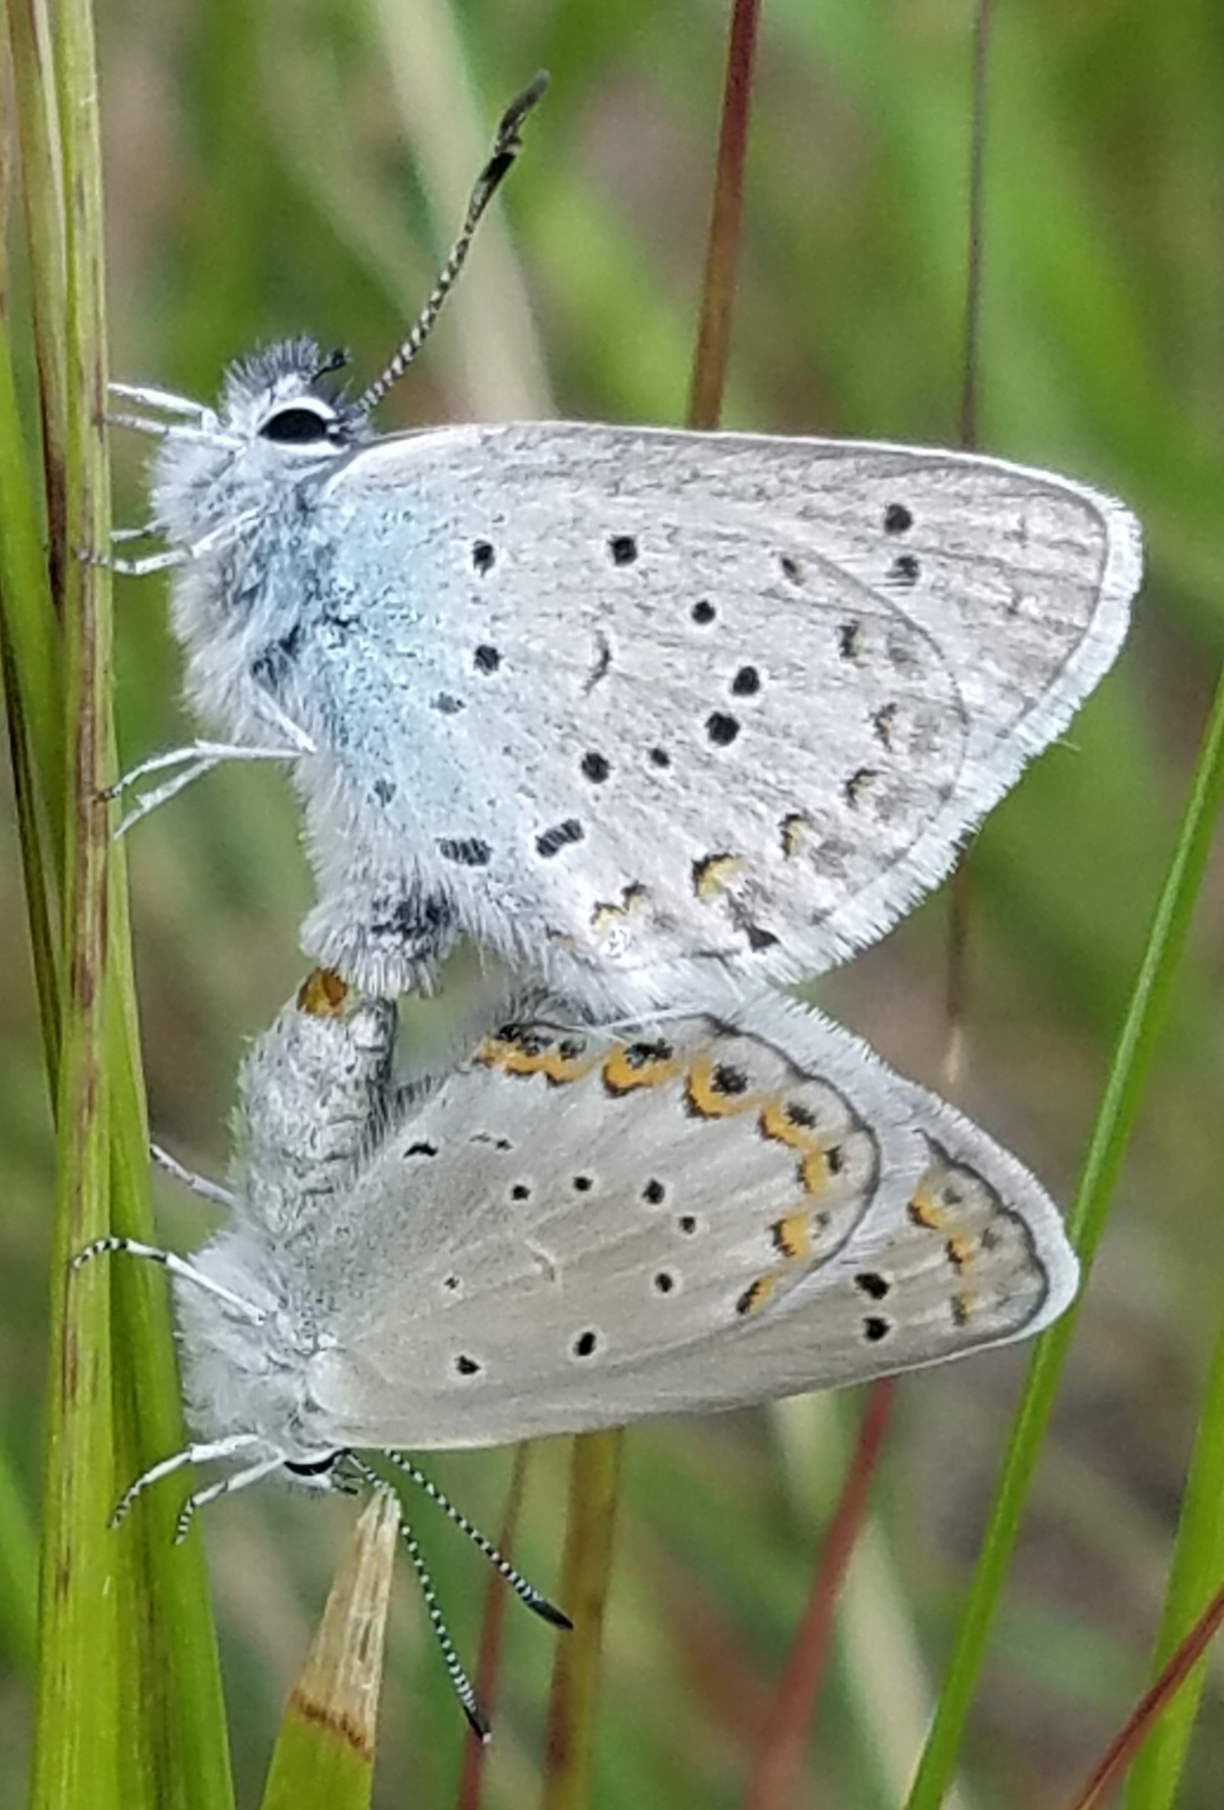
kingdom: Animalia
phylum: Arthropoda
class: Insecta
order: Lepidoptera
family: Lycaenidae
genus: Lycaeides
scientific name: Lycaeides anna
